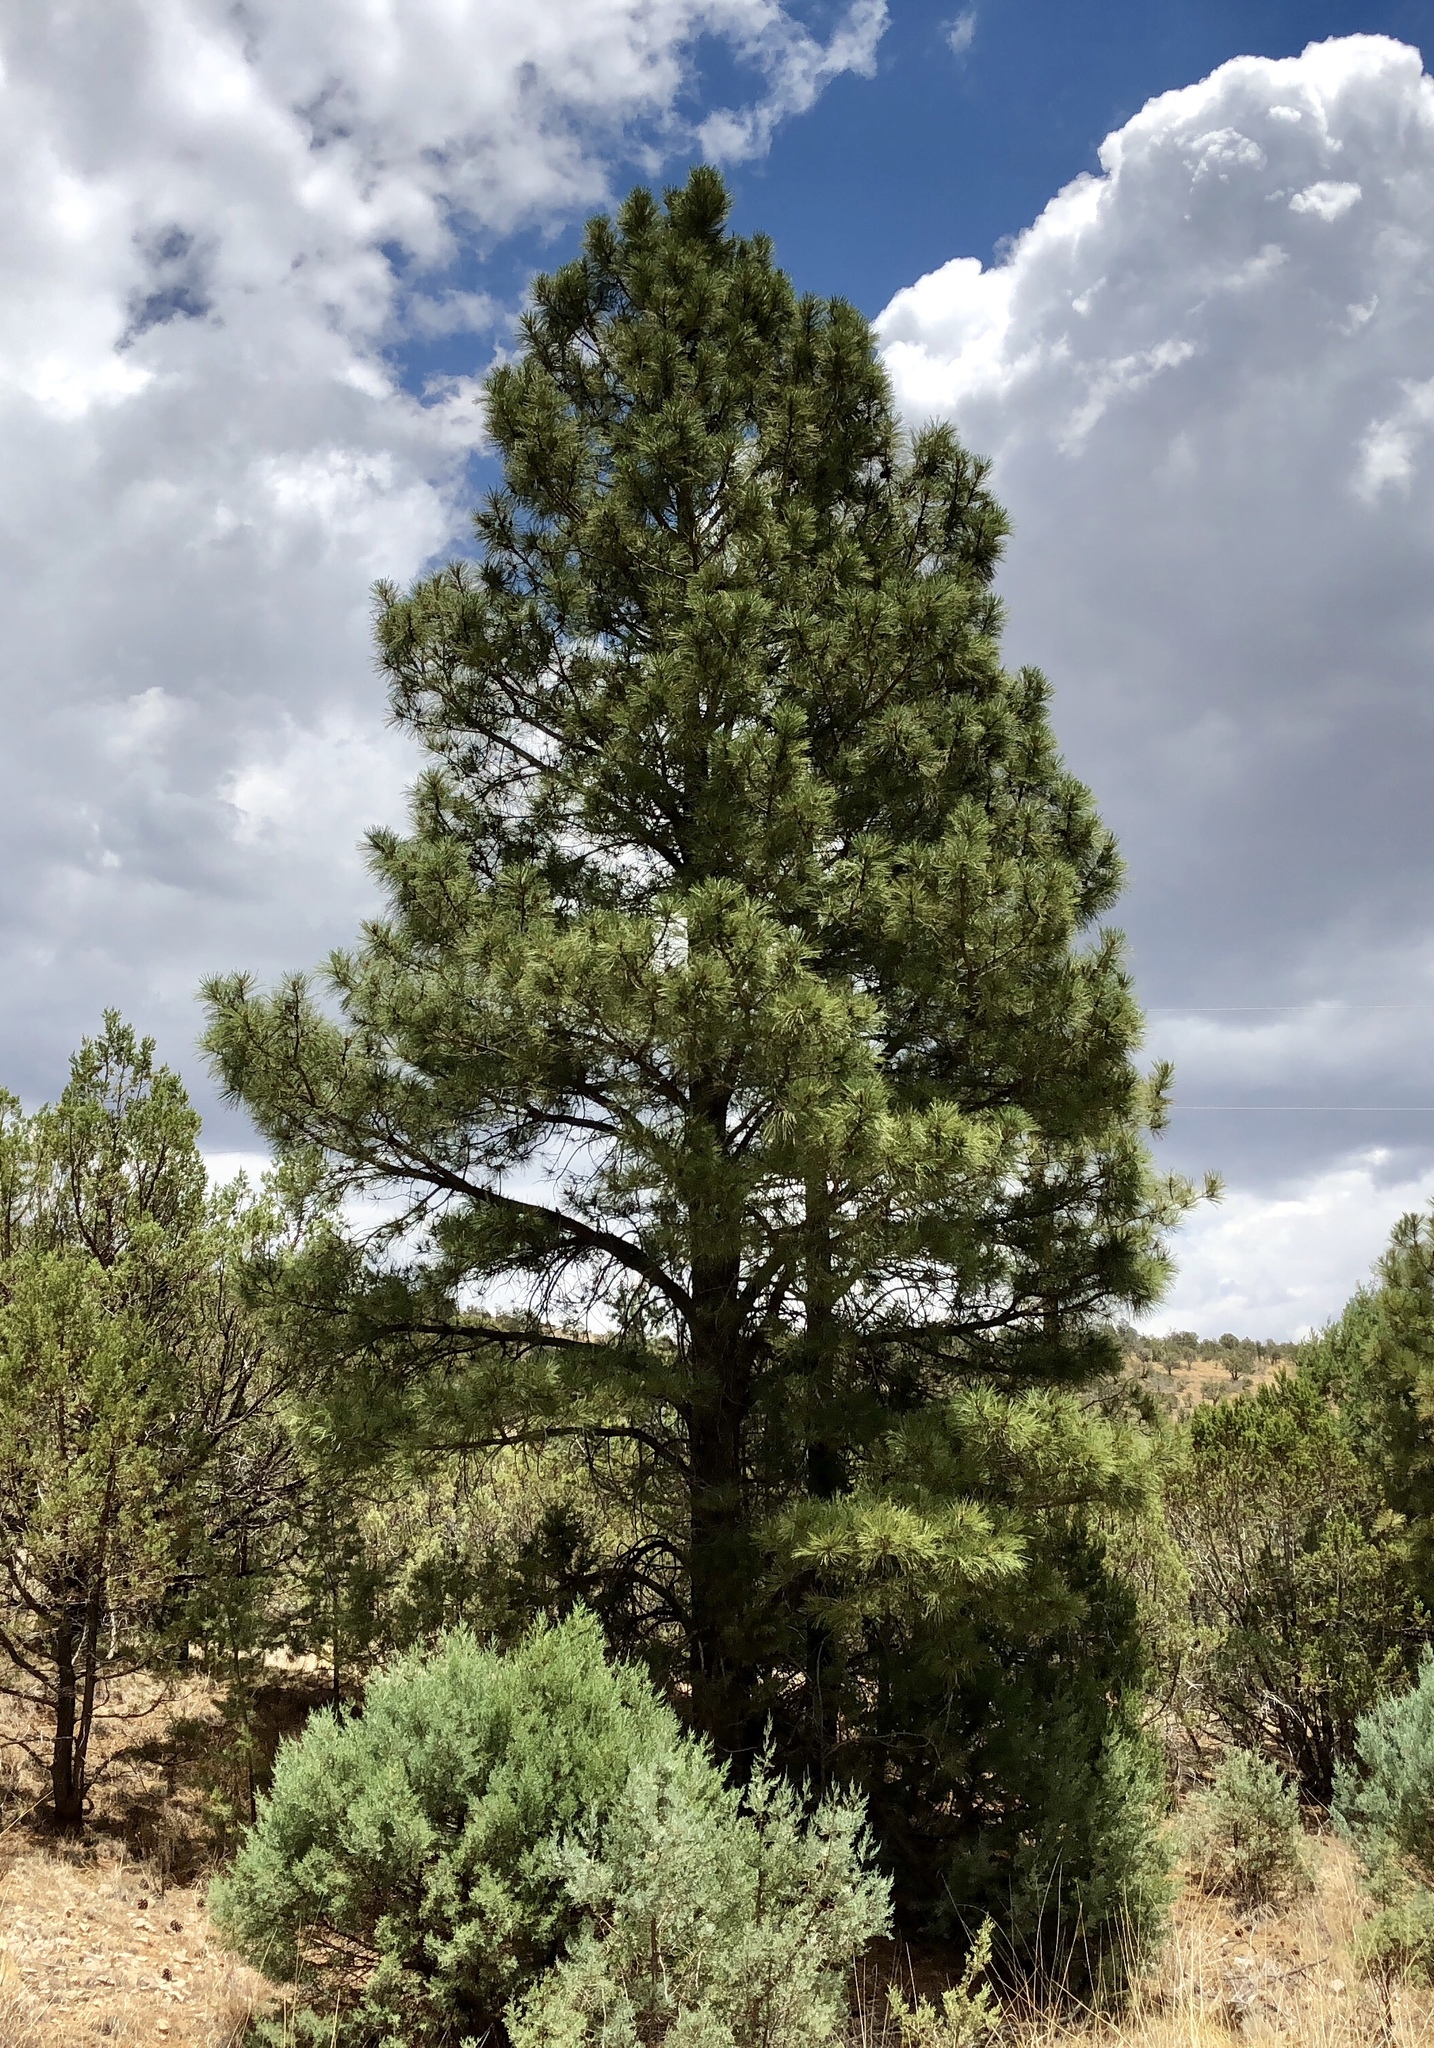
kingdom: Plantae
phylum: Tracheophyta
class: Pinopsida
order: Pinales
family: Pinaceae
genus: Pinus
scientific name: Pinus ponderosa
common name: Western yellow-pine
